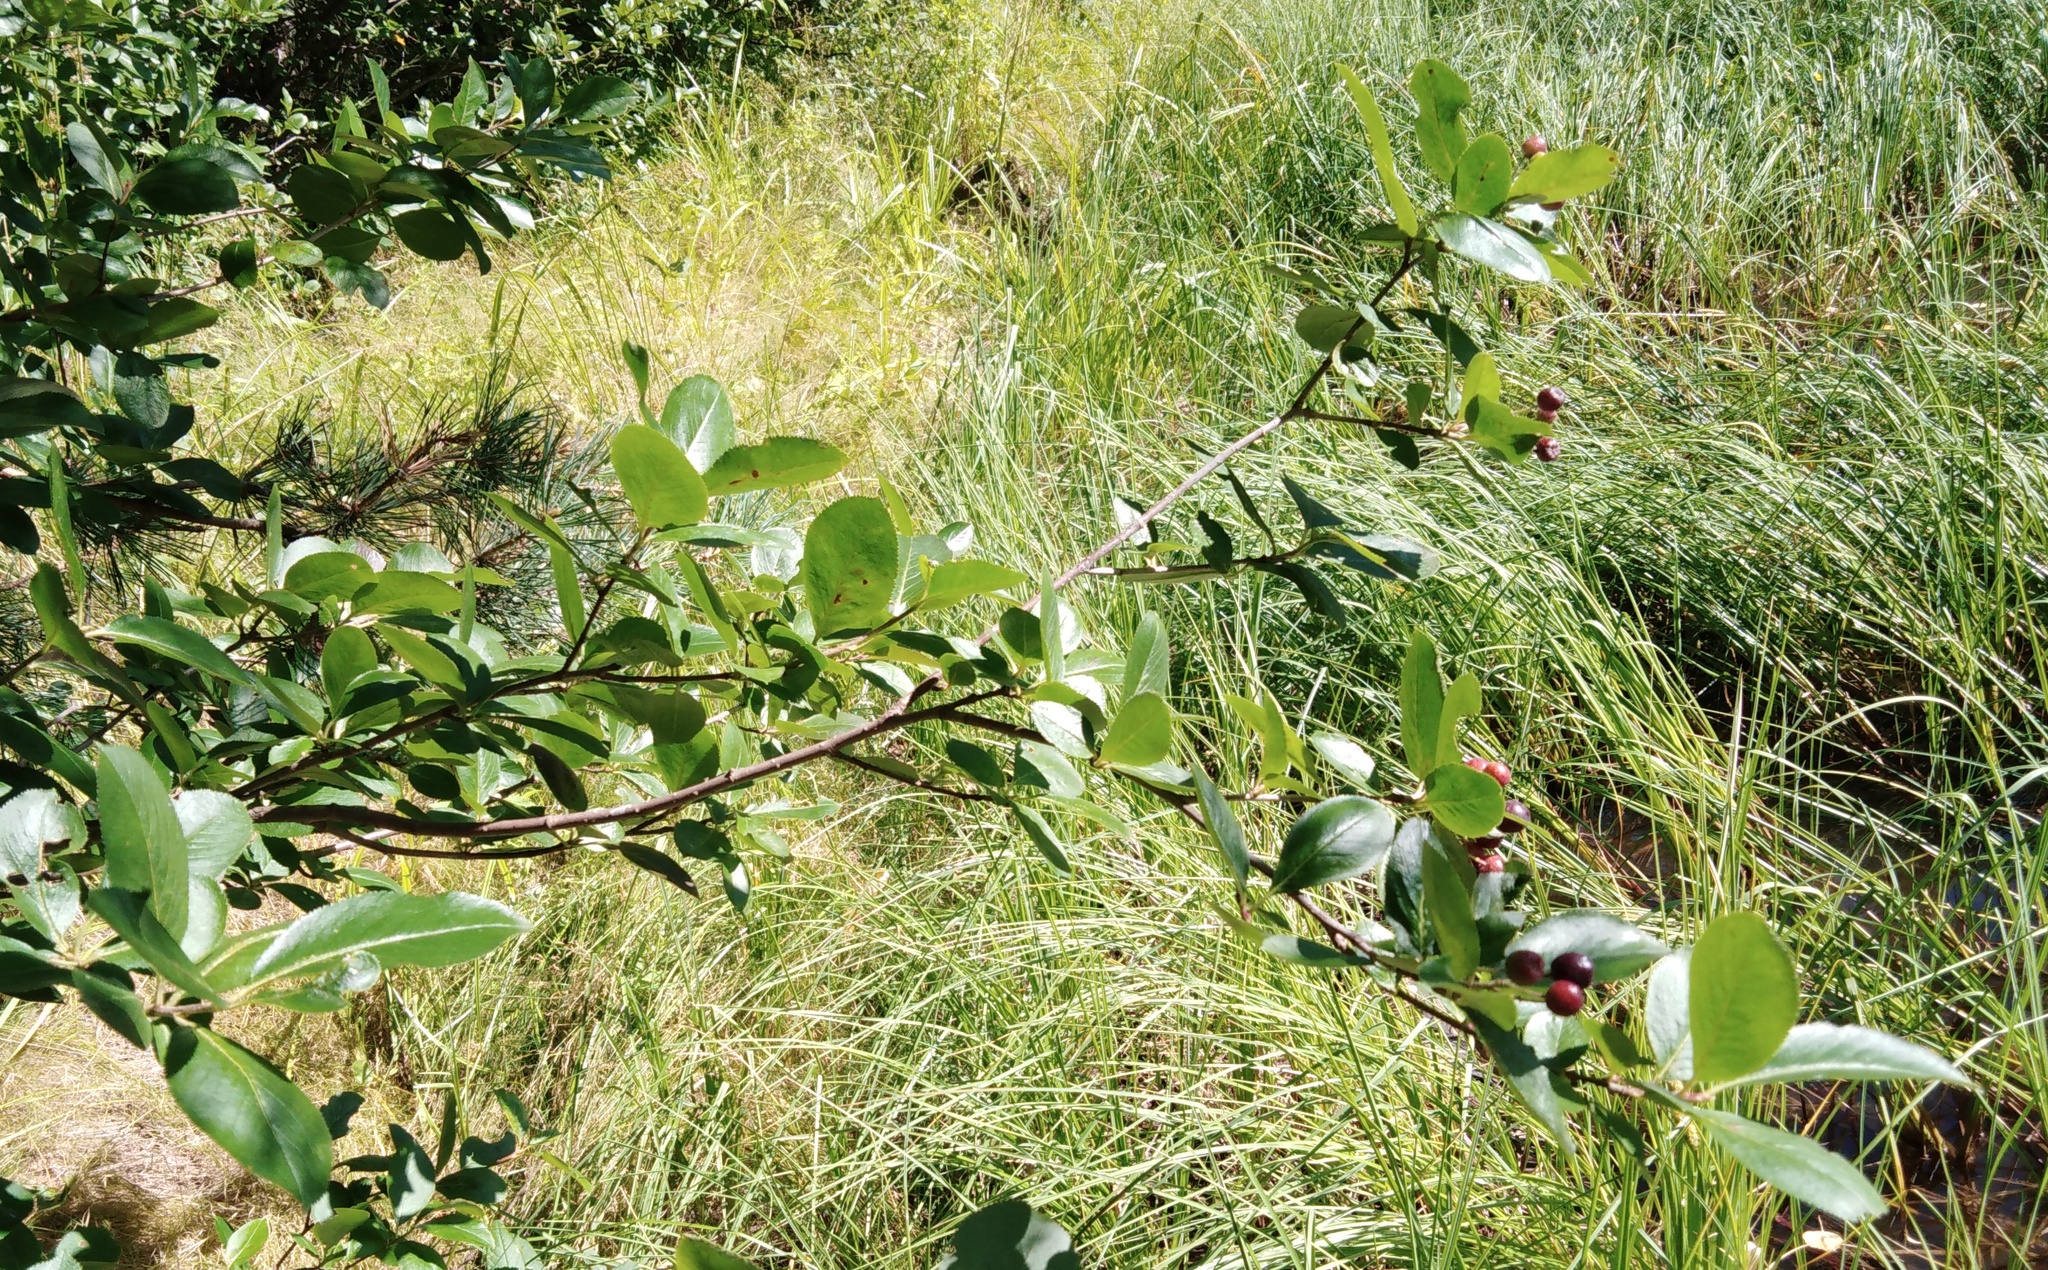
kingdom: Plantae
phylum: Tracheophyta
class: Magnoliopsida
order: Rosales
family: Rosaceae
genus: Sorbaronia
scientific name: Sorbaronia arsenii
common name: Arsène's mountain-ash
